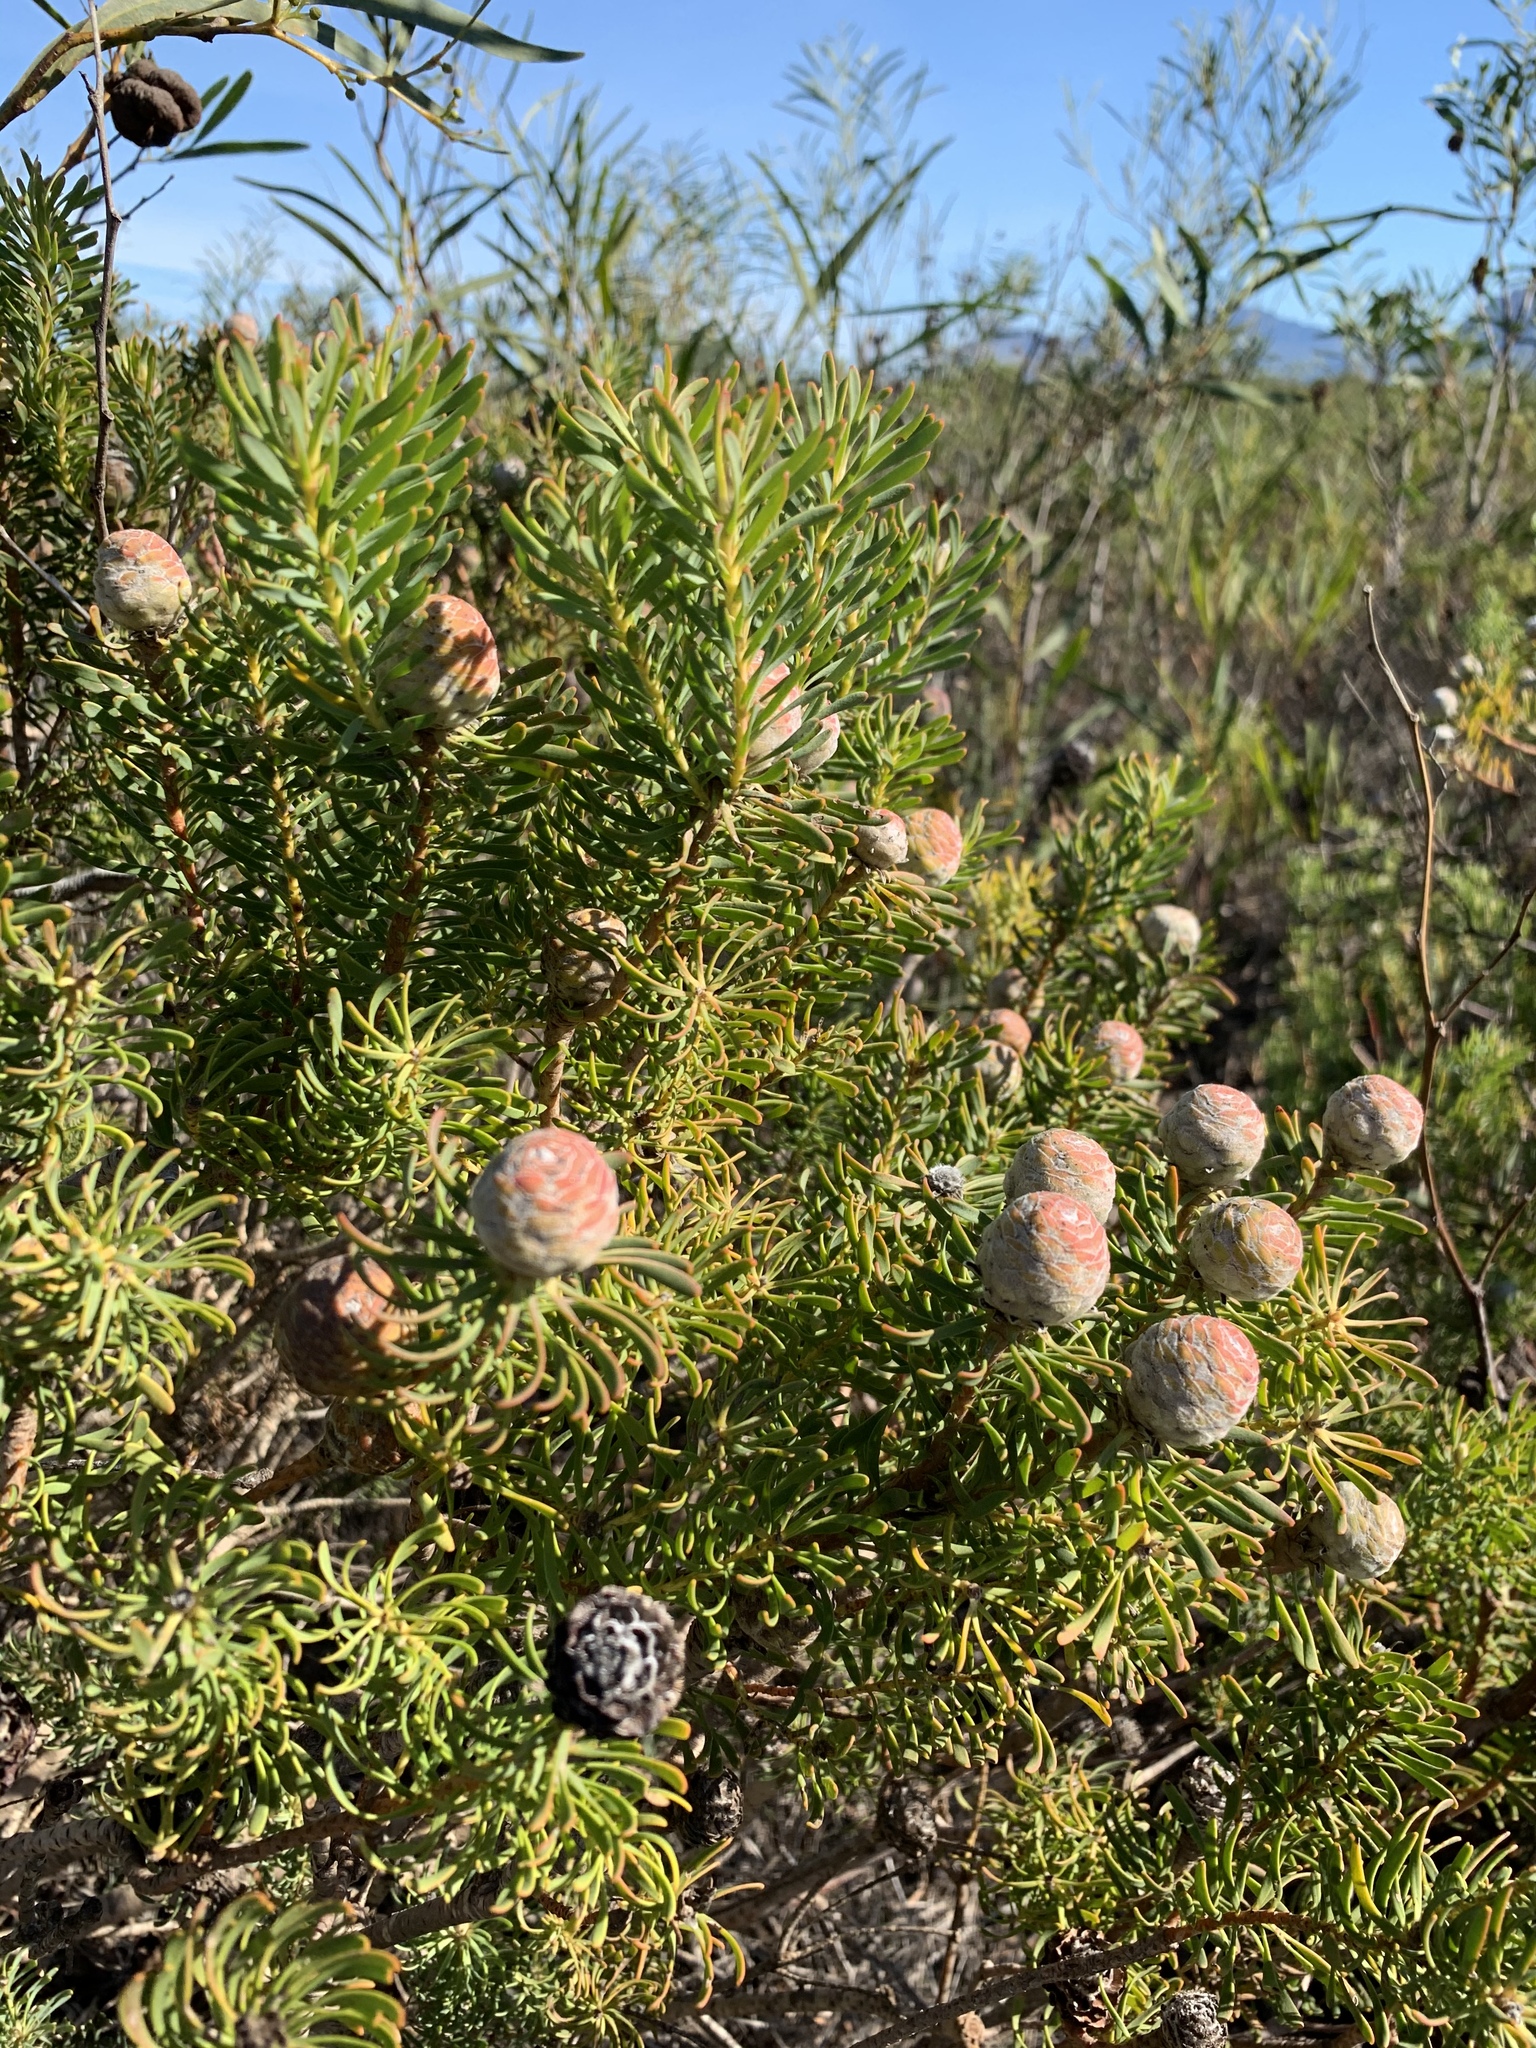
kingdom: Plantae
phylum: Tracheophyta
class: Magnoliopsida
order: Proteales
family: Proteaceae
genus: Leucadendron
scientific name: Leucadendron linifolium
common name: Line-leaf conebush
